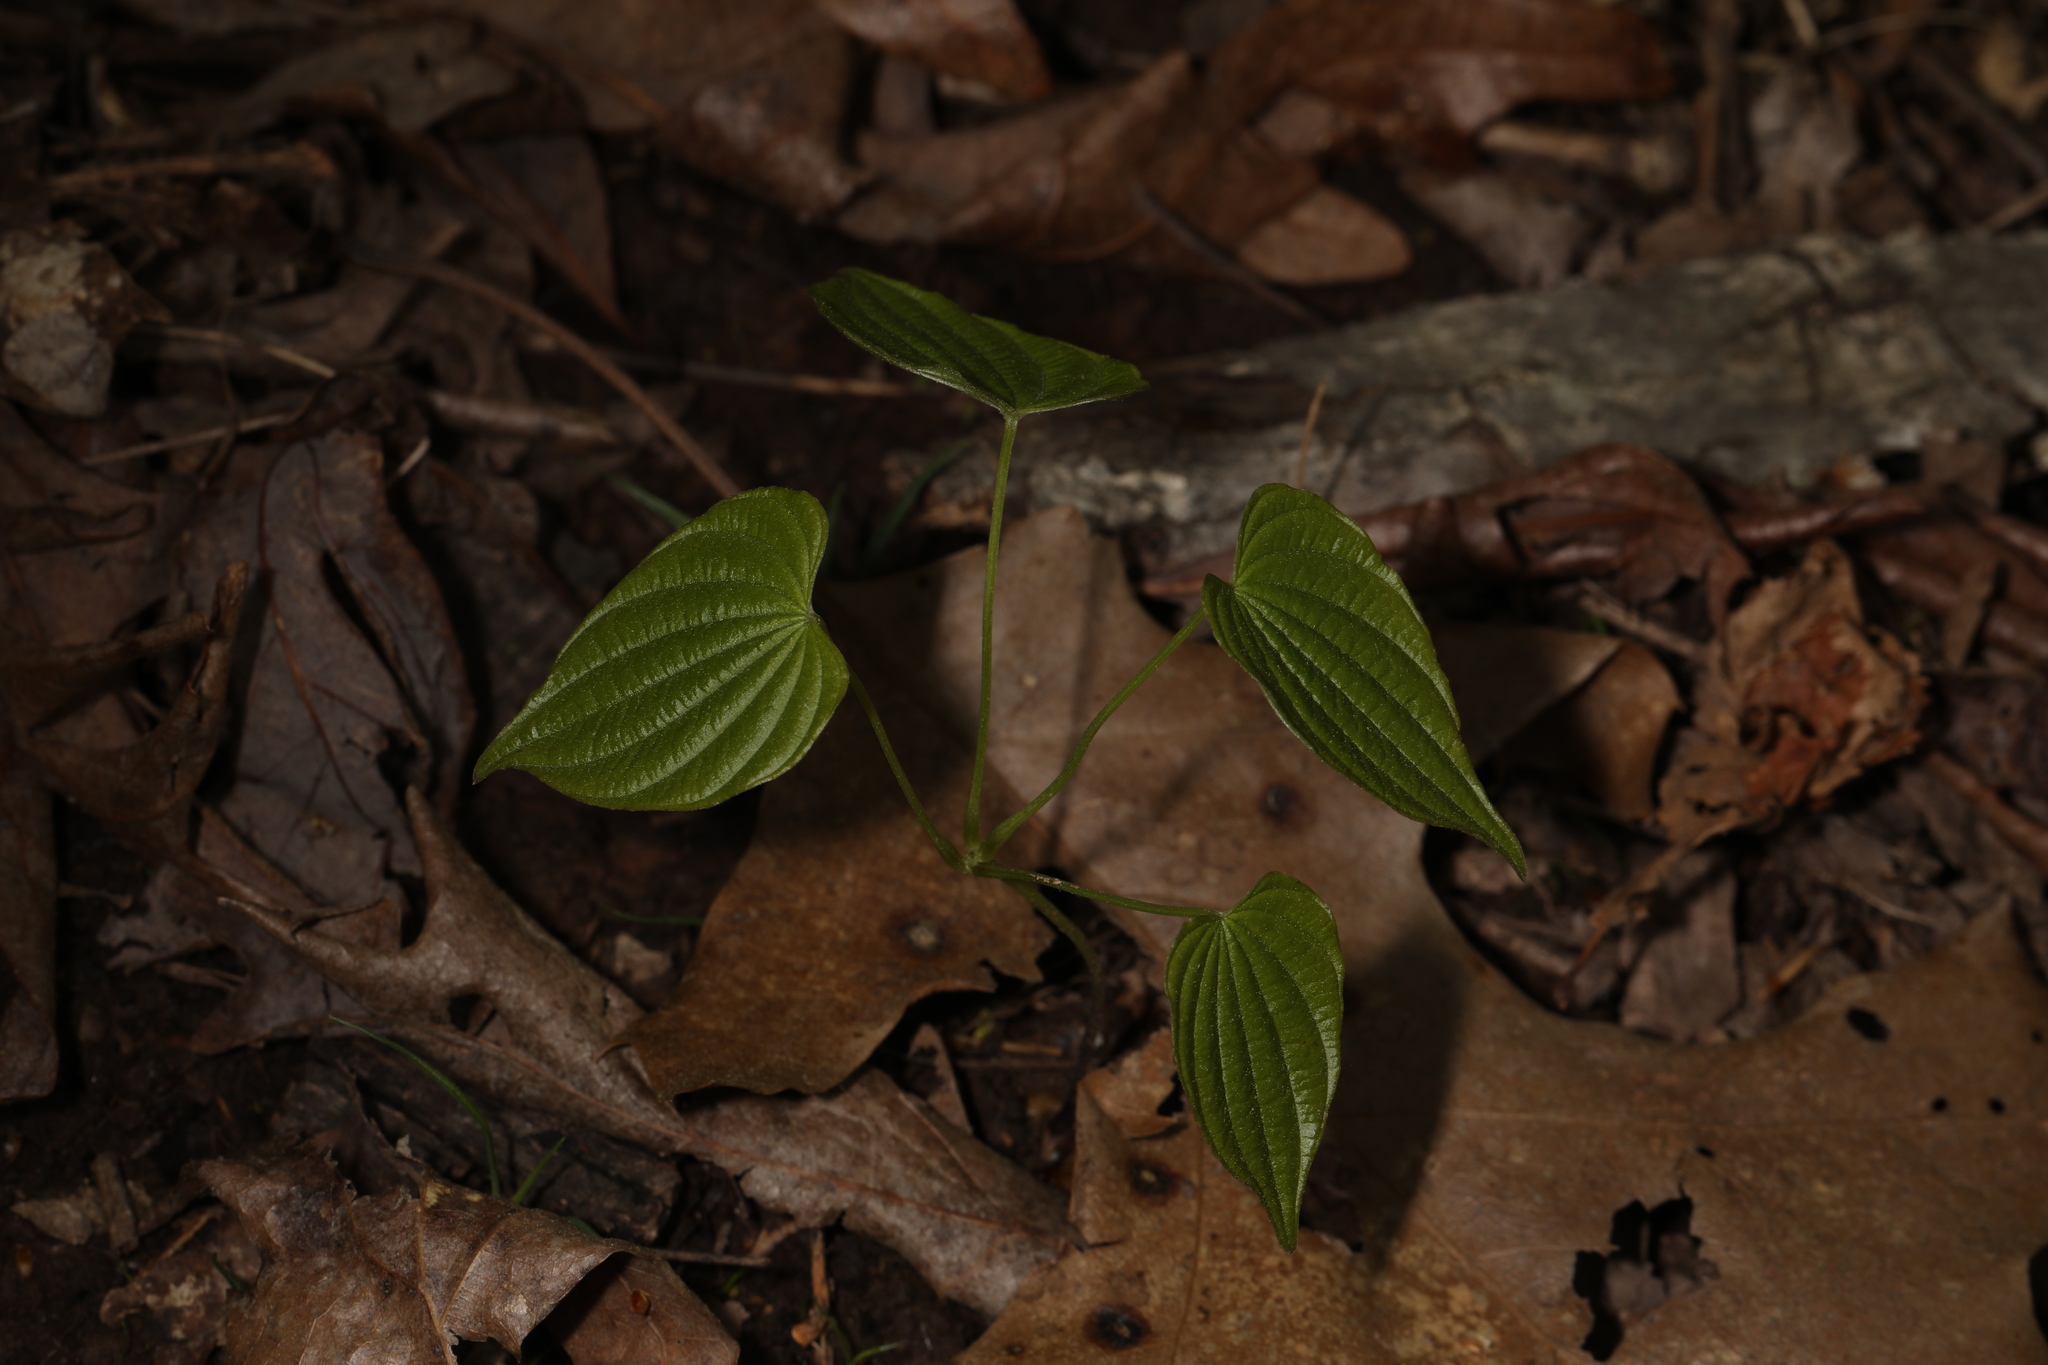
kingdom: Plantae
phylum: Tracheophyta
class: Liliopsida
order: Dioscoreales
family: Dioscoreaceae
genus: Dioscorea
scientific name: Dioscorea villosa
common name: Wild yam
